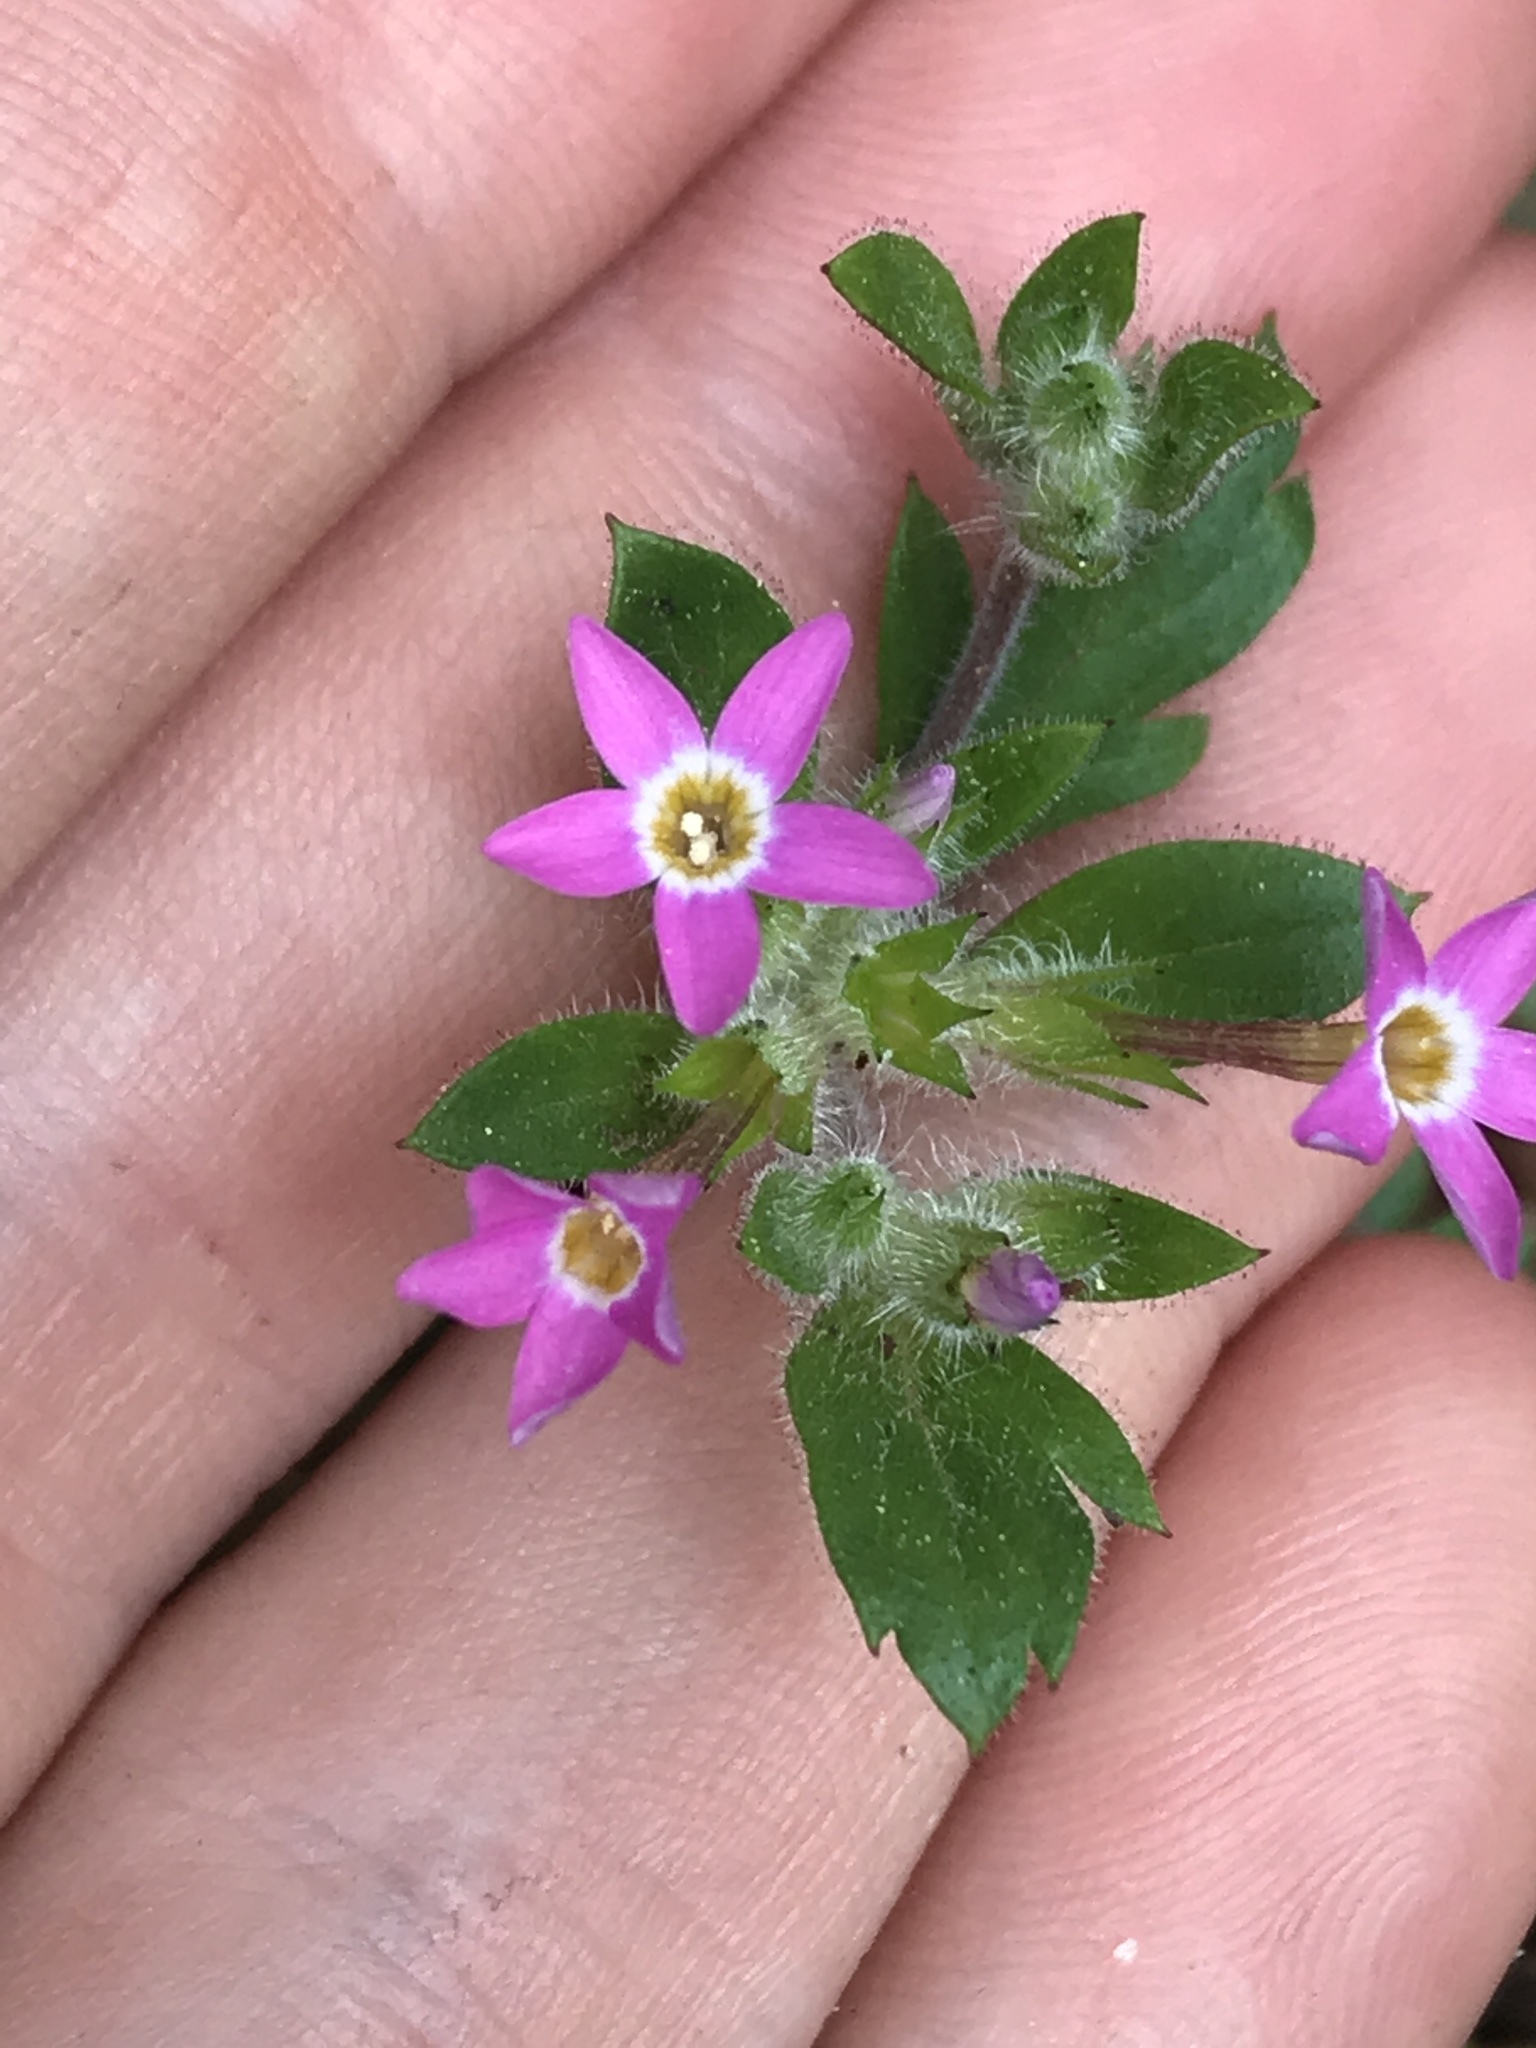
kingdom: Plantae
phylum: Tracheophyta
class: Magnoliopsida
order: Ericales
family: Polemoniaceae
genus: Collomia
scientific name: Collomia heterophylla
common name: Variable-leaved collomia
